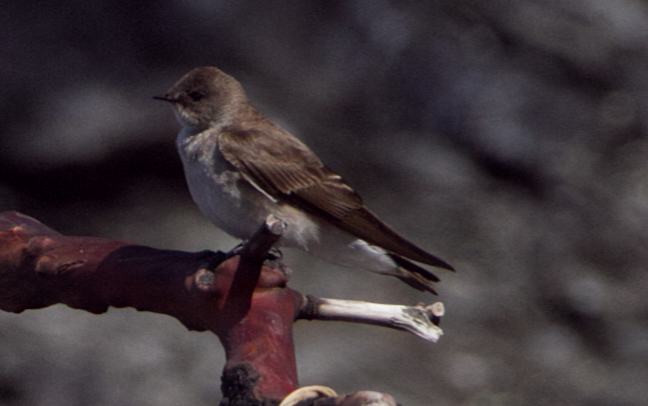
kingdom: Animalia
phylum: Chordata
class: Aves
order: Passeriformes
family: Hirundinidae
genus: Stelgidopteryx
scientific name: Stelgidopteryx serripennis
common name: Northern rough-winged swallow
